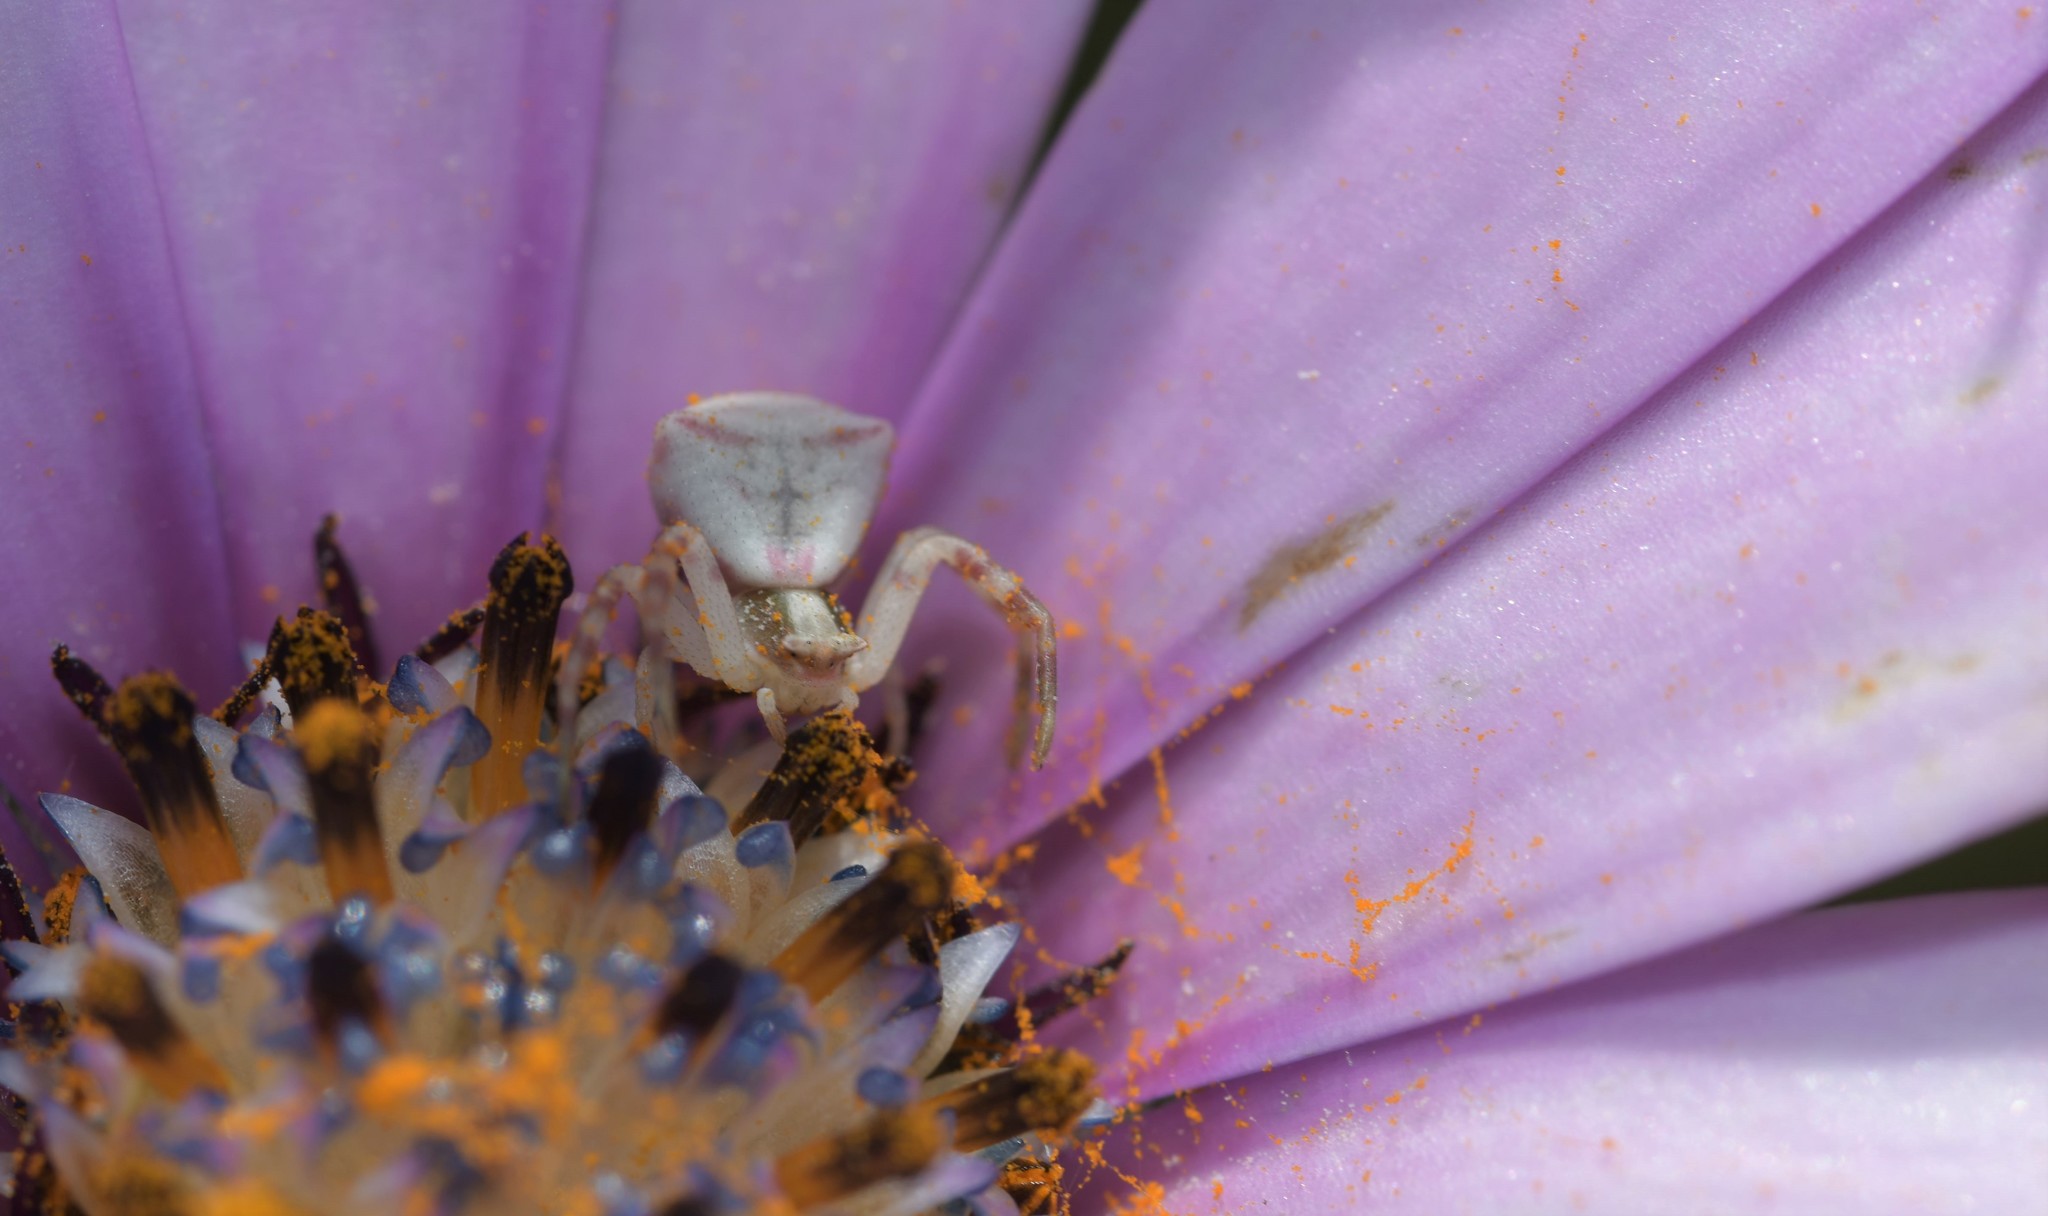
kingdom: Animalia
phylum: Arthropoda
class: Arachnida
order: Araneae
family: Thomisidae
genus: Thomisus
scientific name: Thomisus onustus
